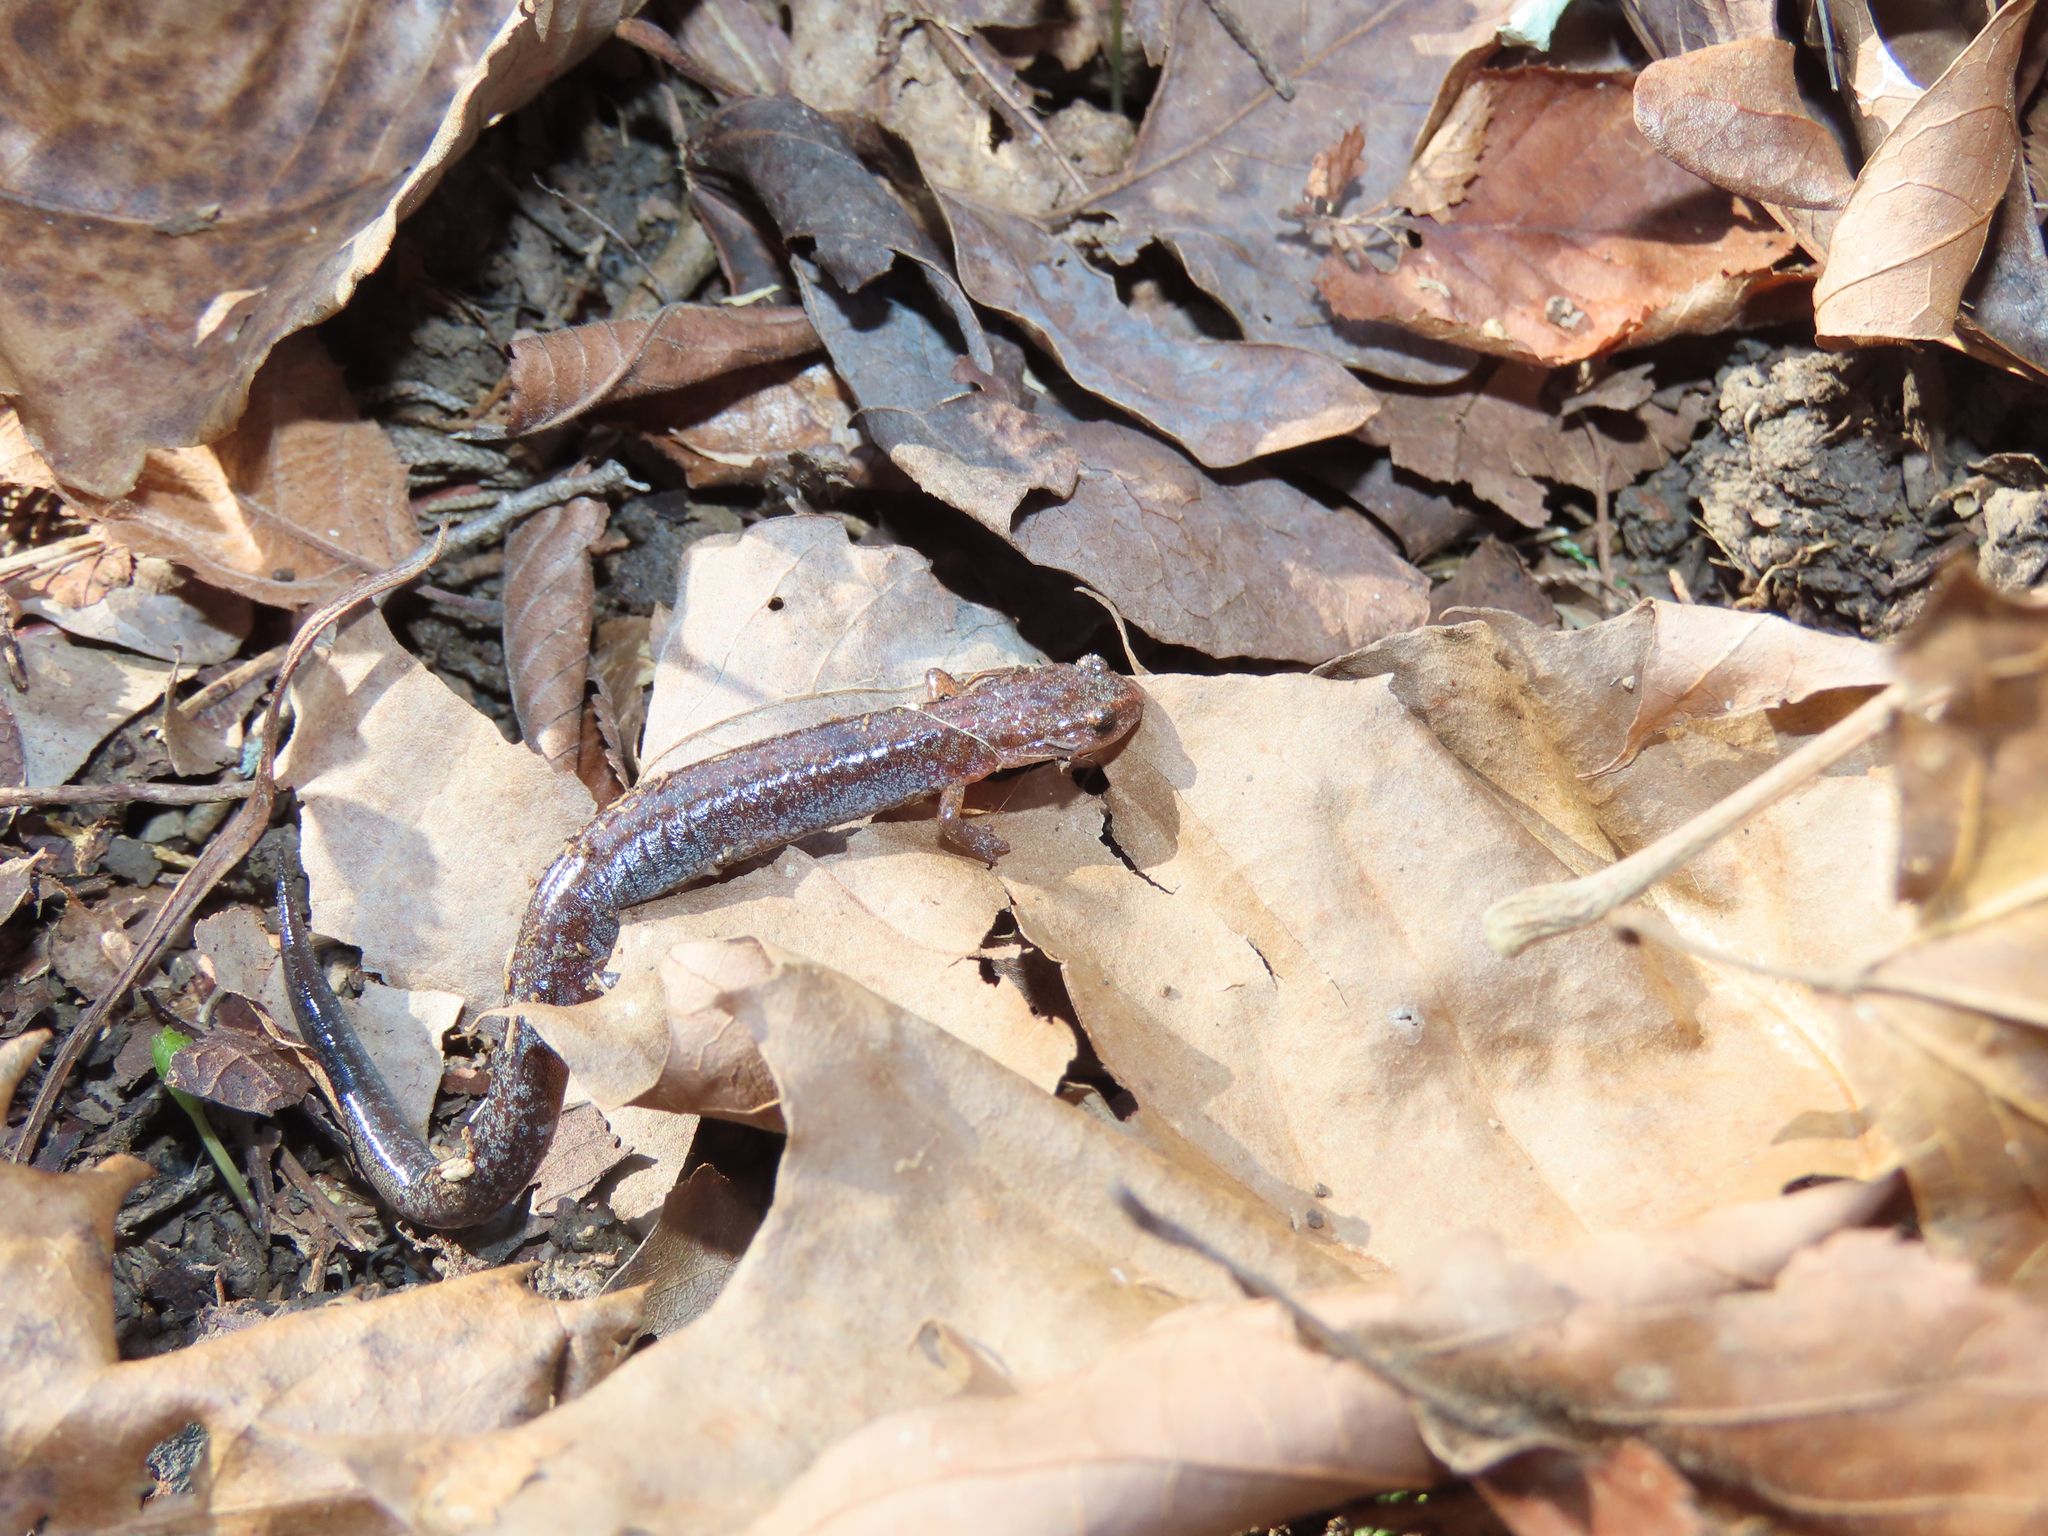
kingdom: Animalia
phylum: Chordata
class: Amphibia
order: Caudata
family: Plethodontidae
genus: Plethodon
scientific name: Plethodon ventralis
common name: Southern zigzag salamander
